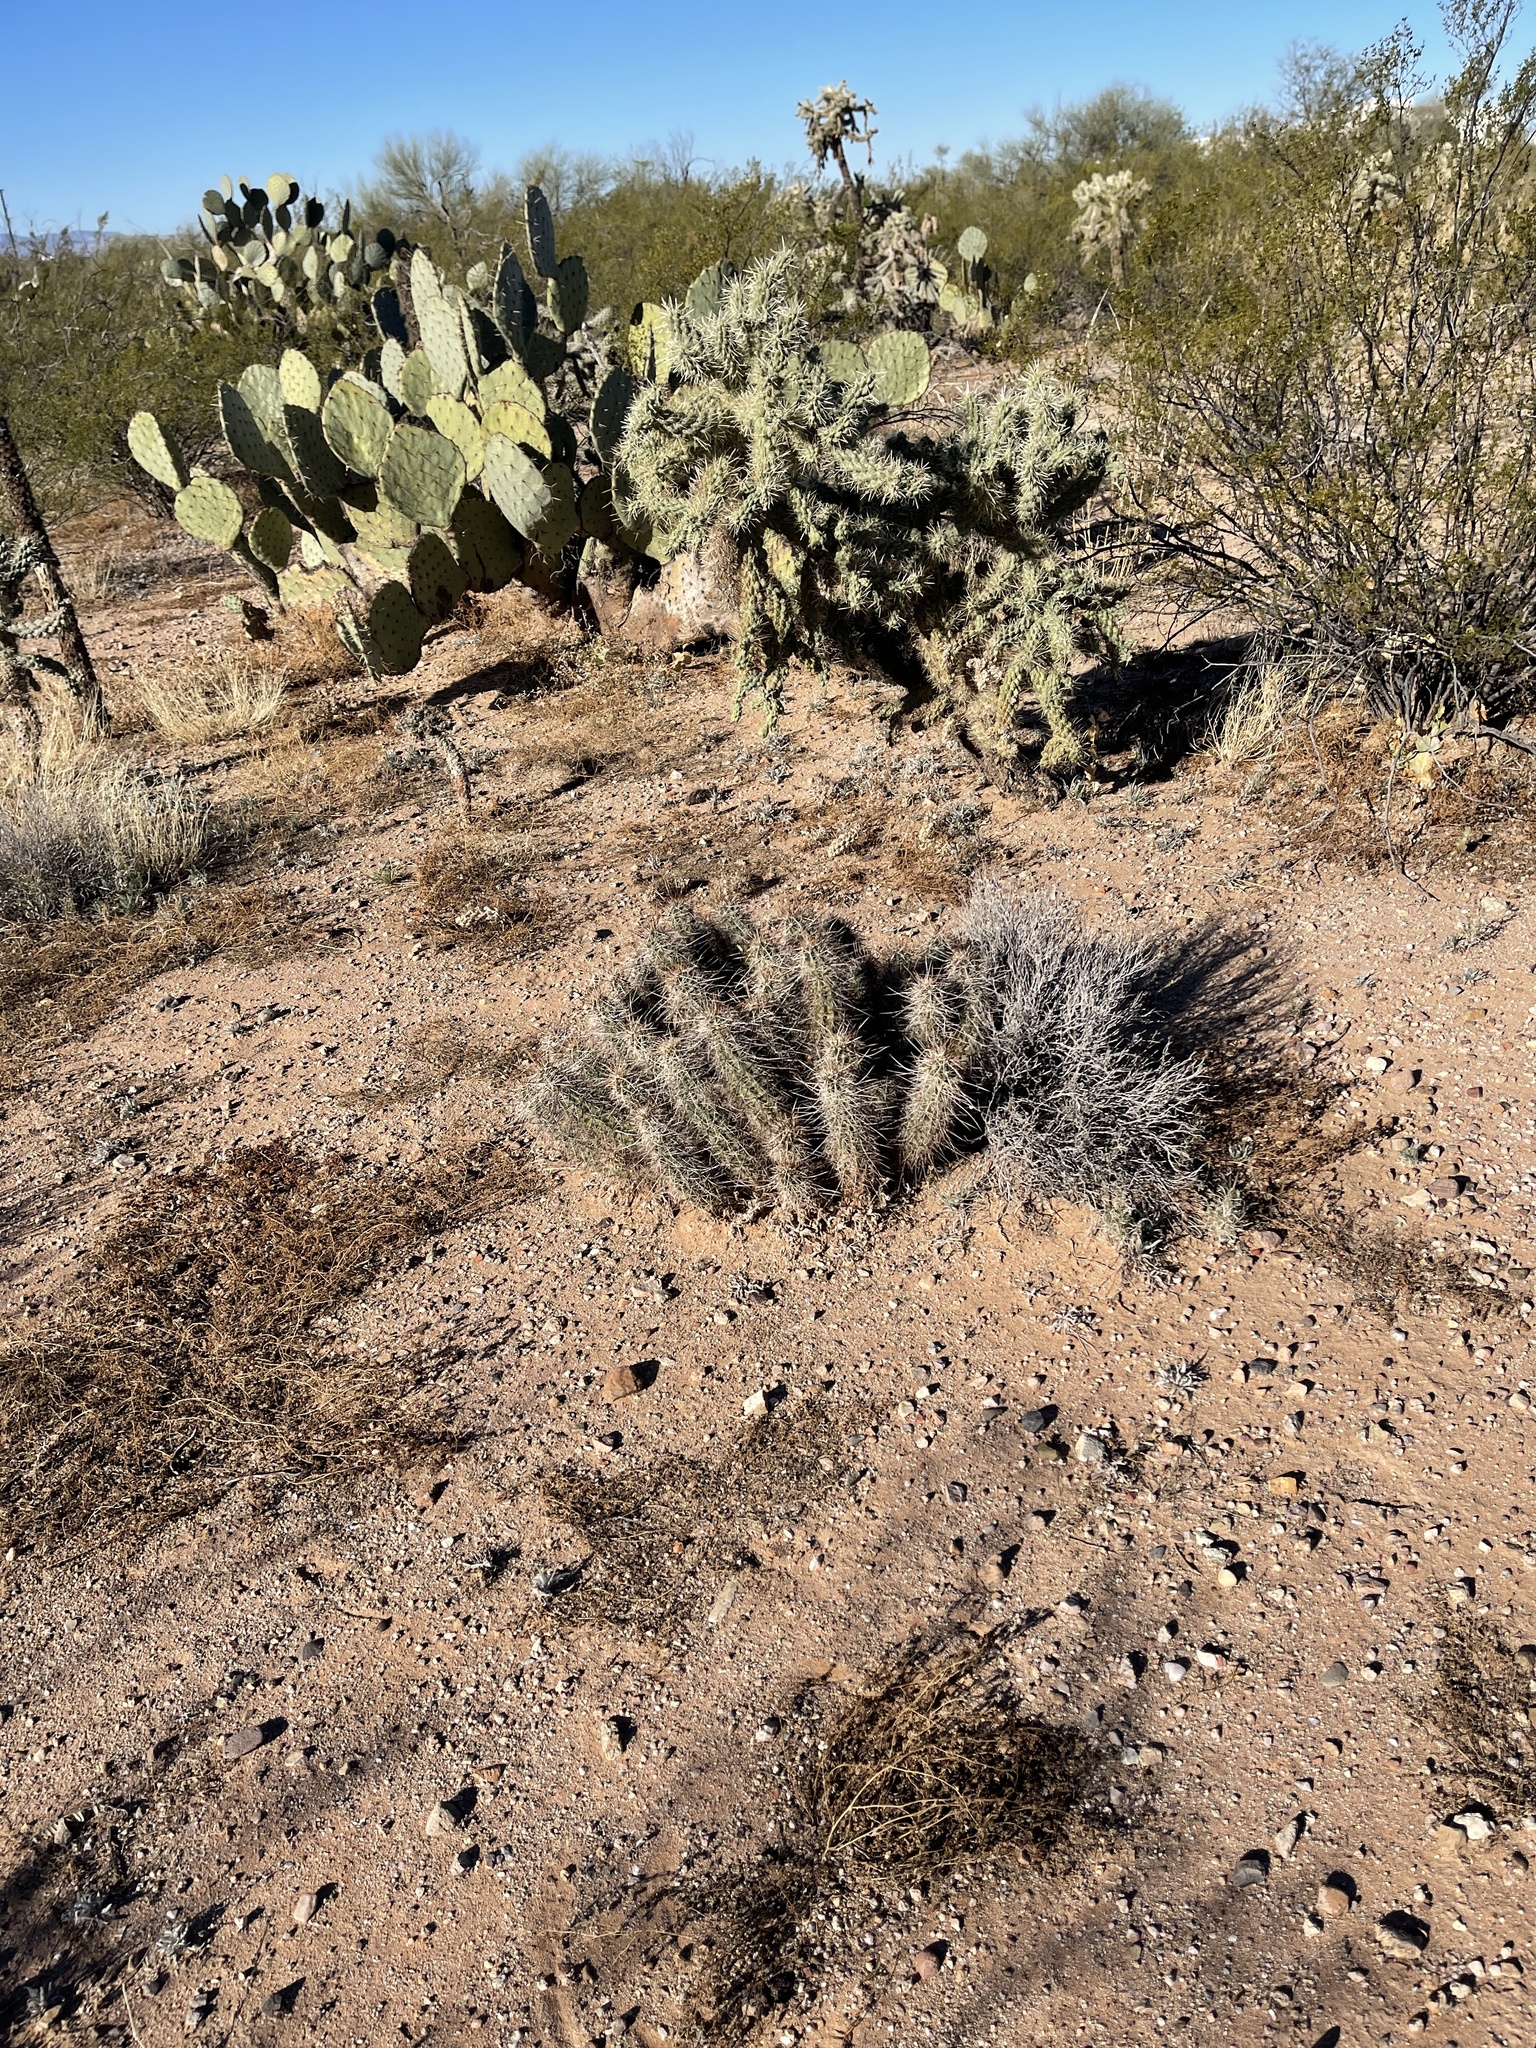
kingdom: Plantae
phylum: Tracheophyta
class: Magnoliopsida
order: Caryophyllales
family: Cactaceae
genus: Echinocereus
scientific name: Echinocereus fasciculatus
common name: Bundle hedgehog
